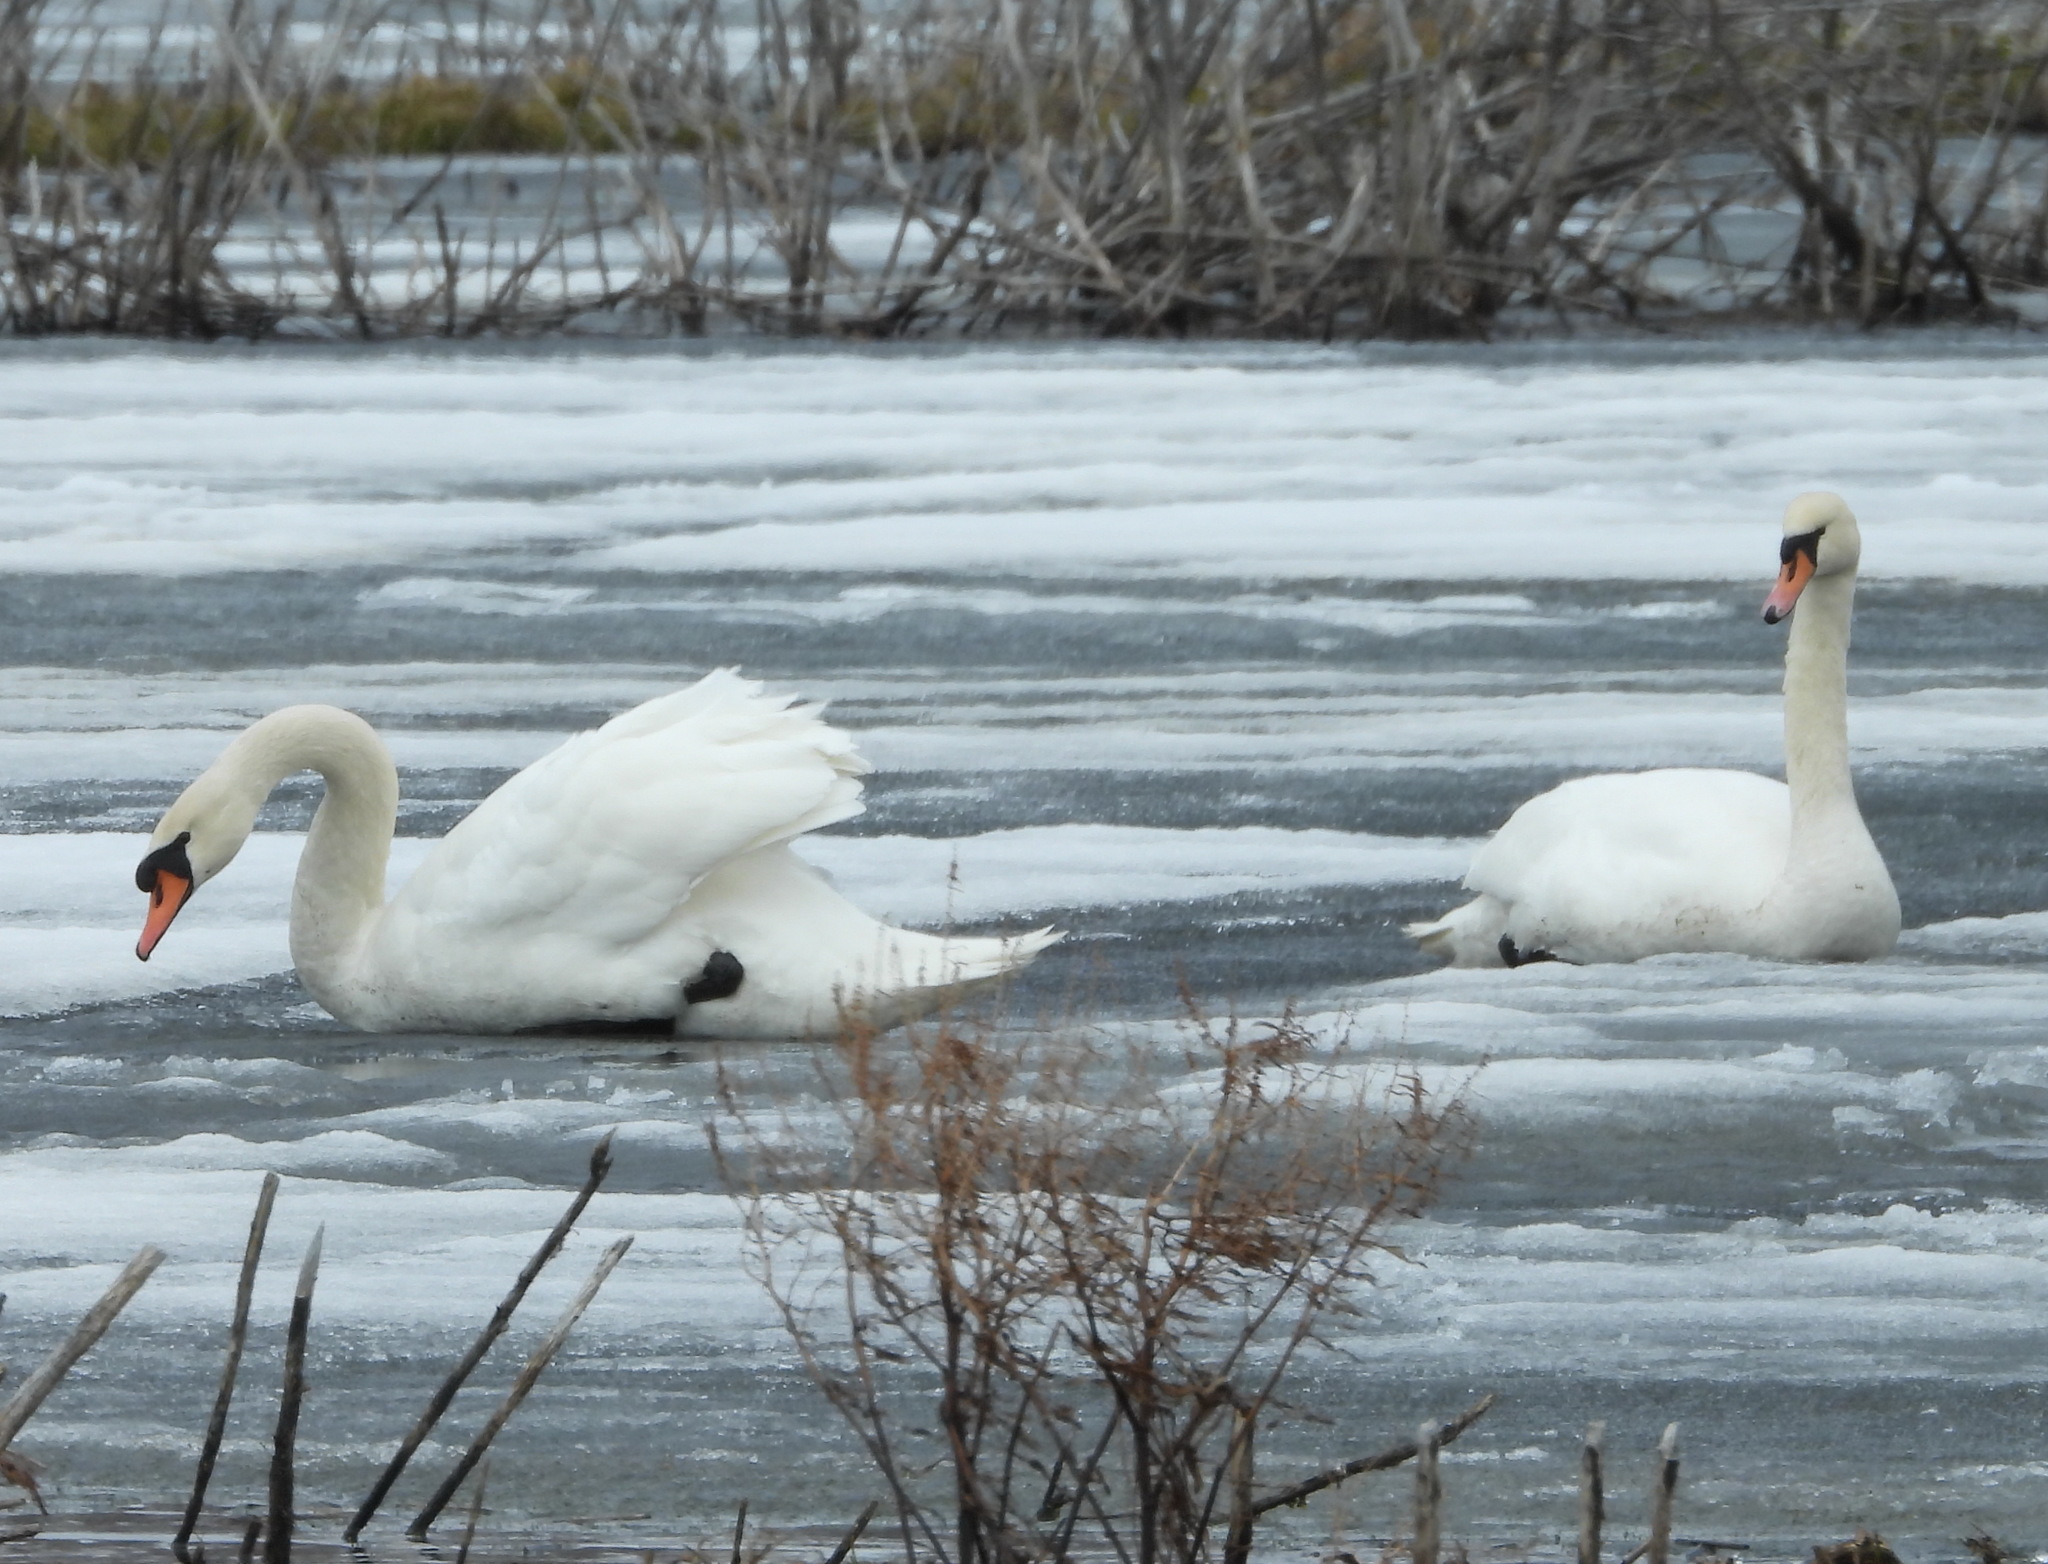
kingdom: Animalia
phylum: Chordata
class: Aves
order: Anseriformes
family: Anatidae
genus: Cygnus
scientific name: Cygnus olor
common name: Mute swan
